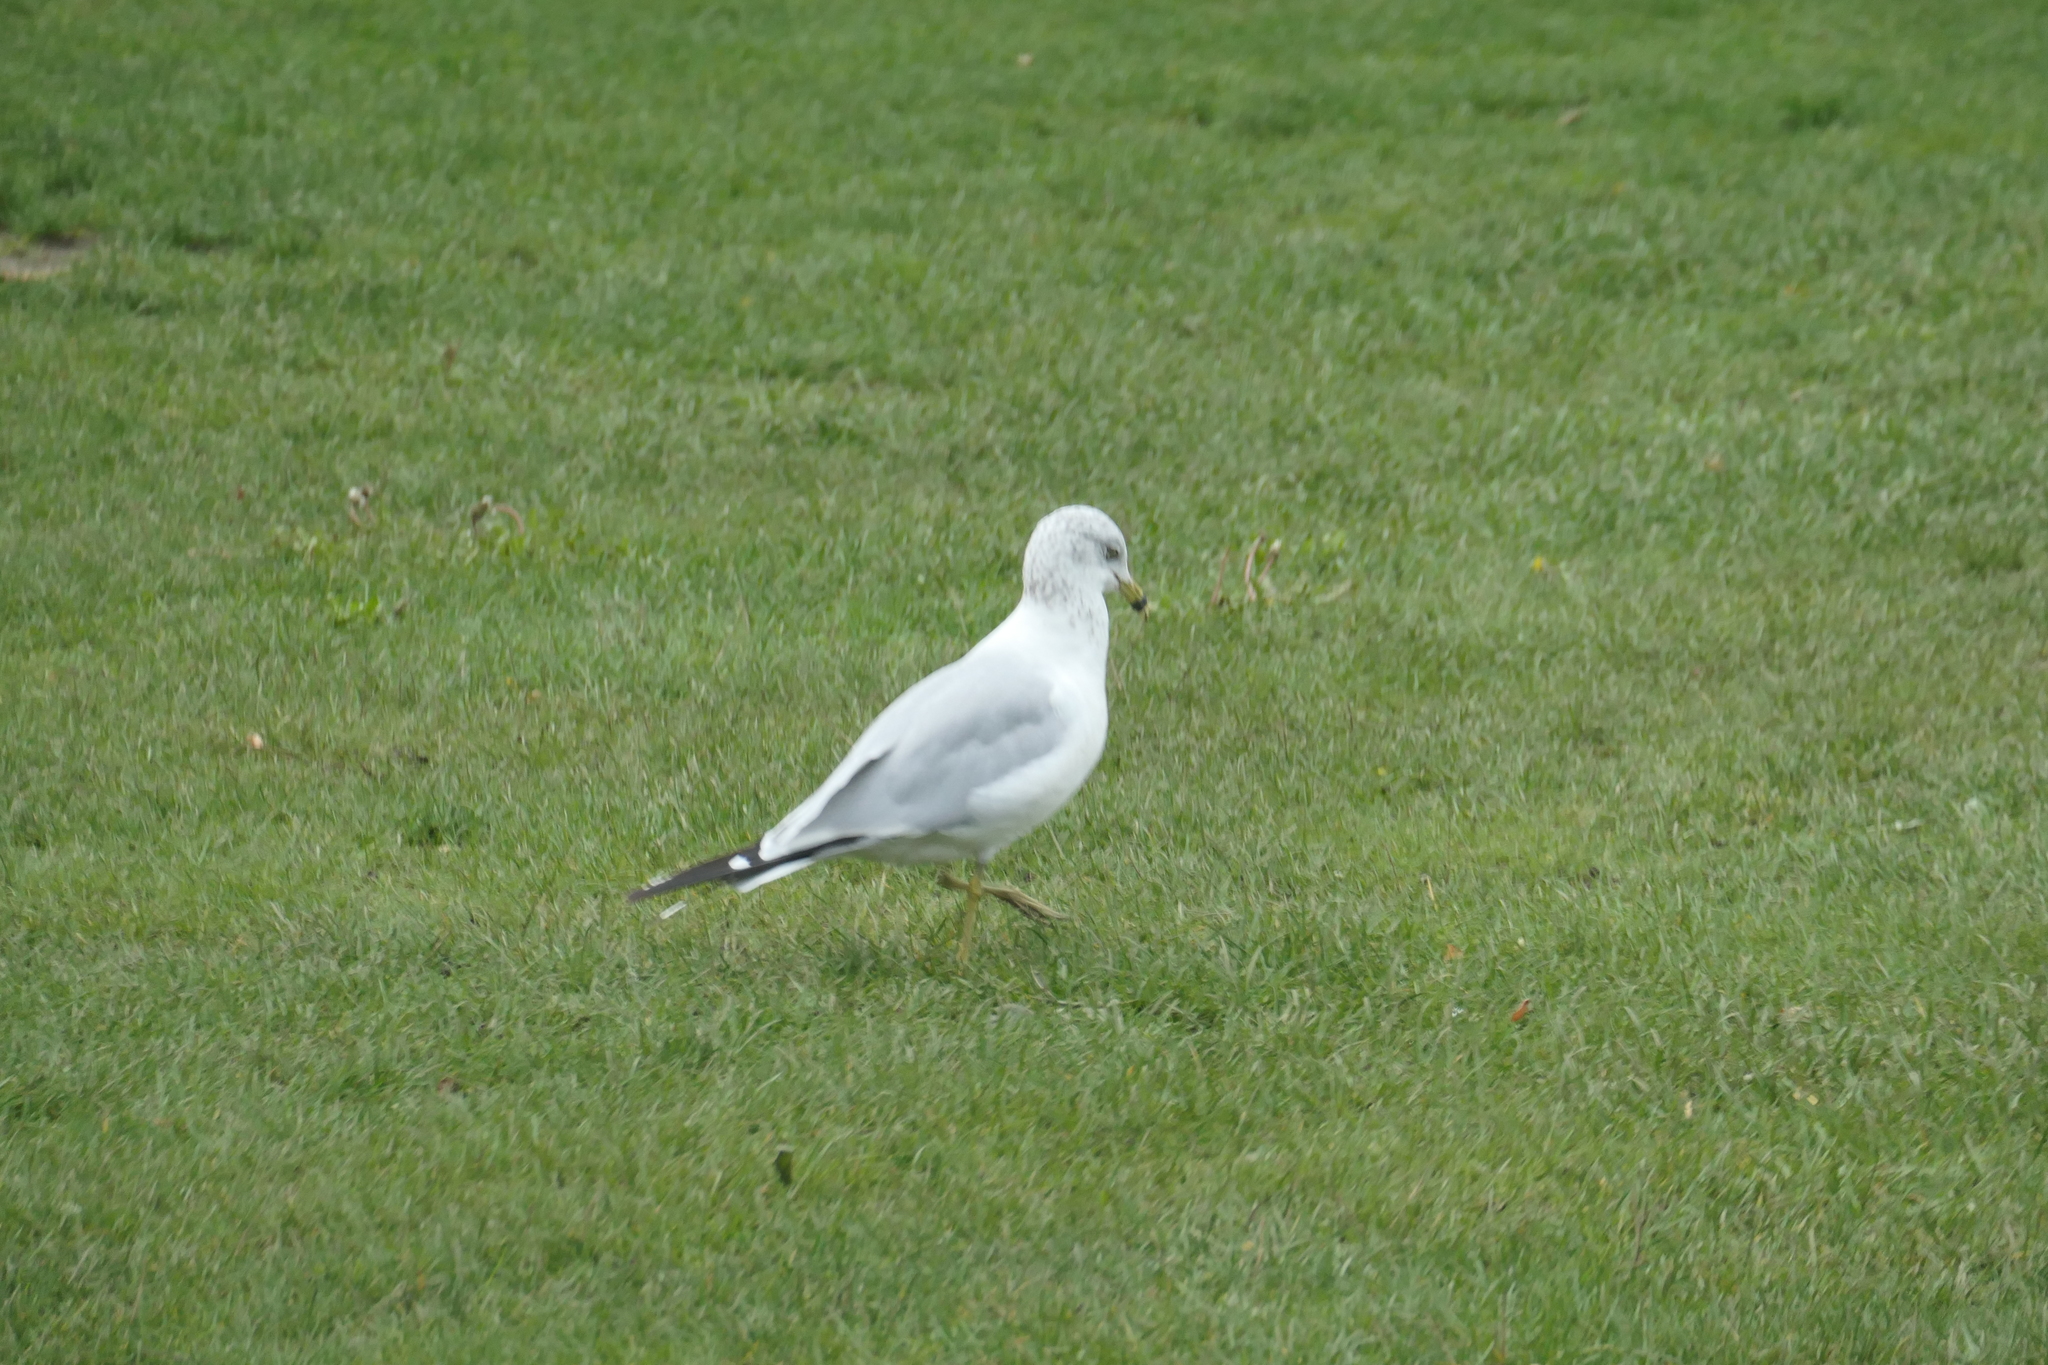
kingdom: Animalia
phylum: Chordata
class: Aves
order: Charadriiformes
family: Laridae
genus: Larus
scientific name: Larus delawarensis
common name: Ring-billed gull
